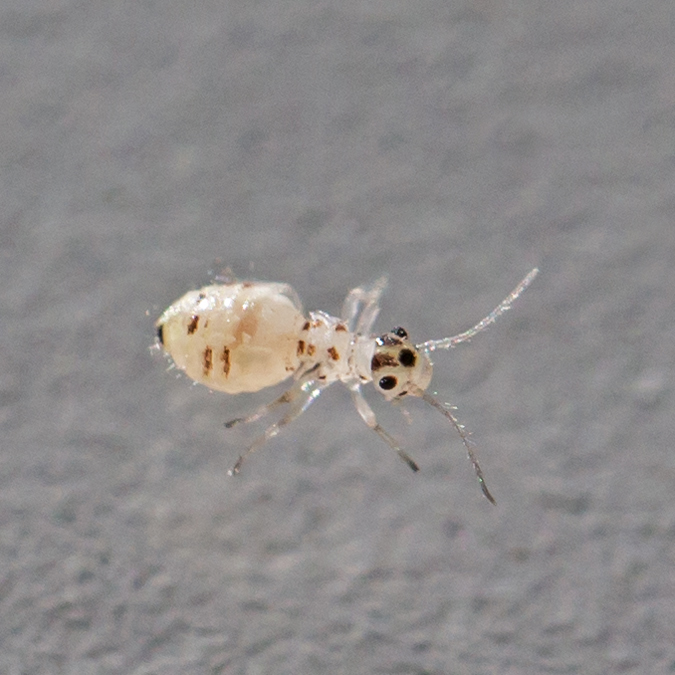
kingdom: Animalia
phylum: Arthropoda
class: Insecta
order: Psocodea
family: Dasydemellidae
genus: Teliapsocus
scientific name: Teliapsocus conterminus
